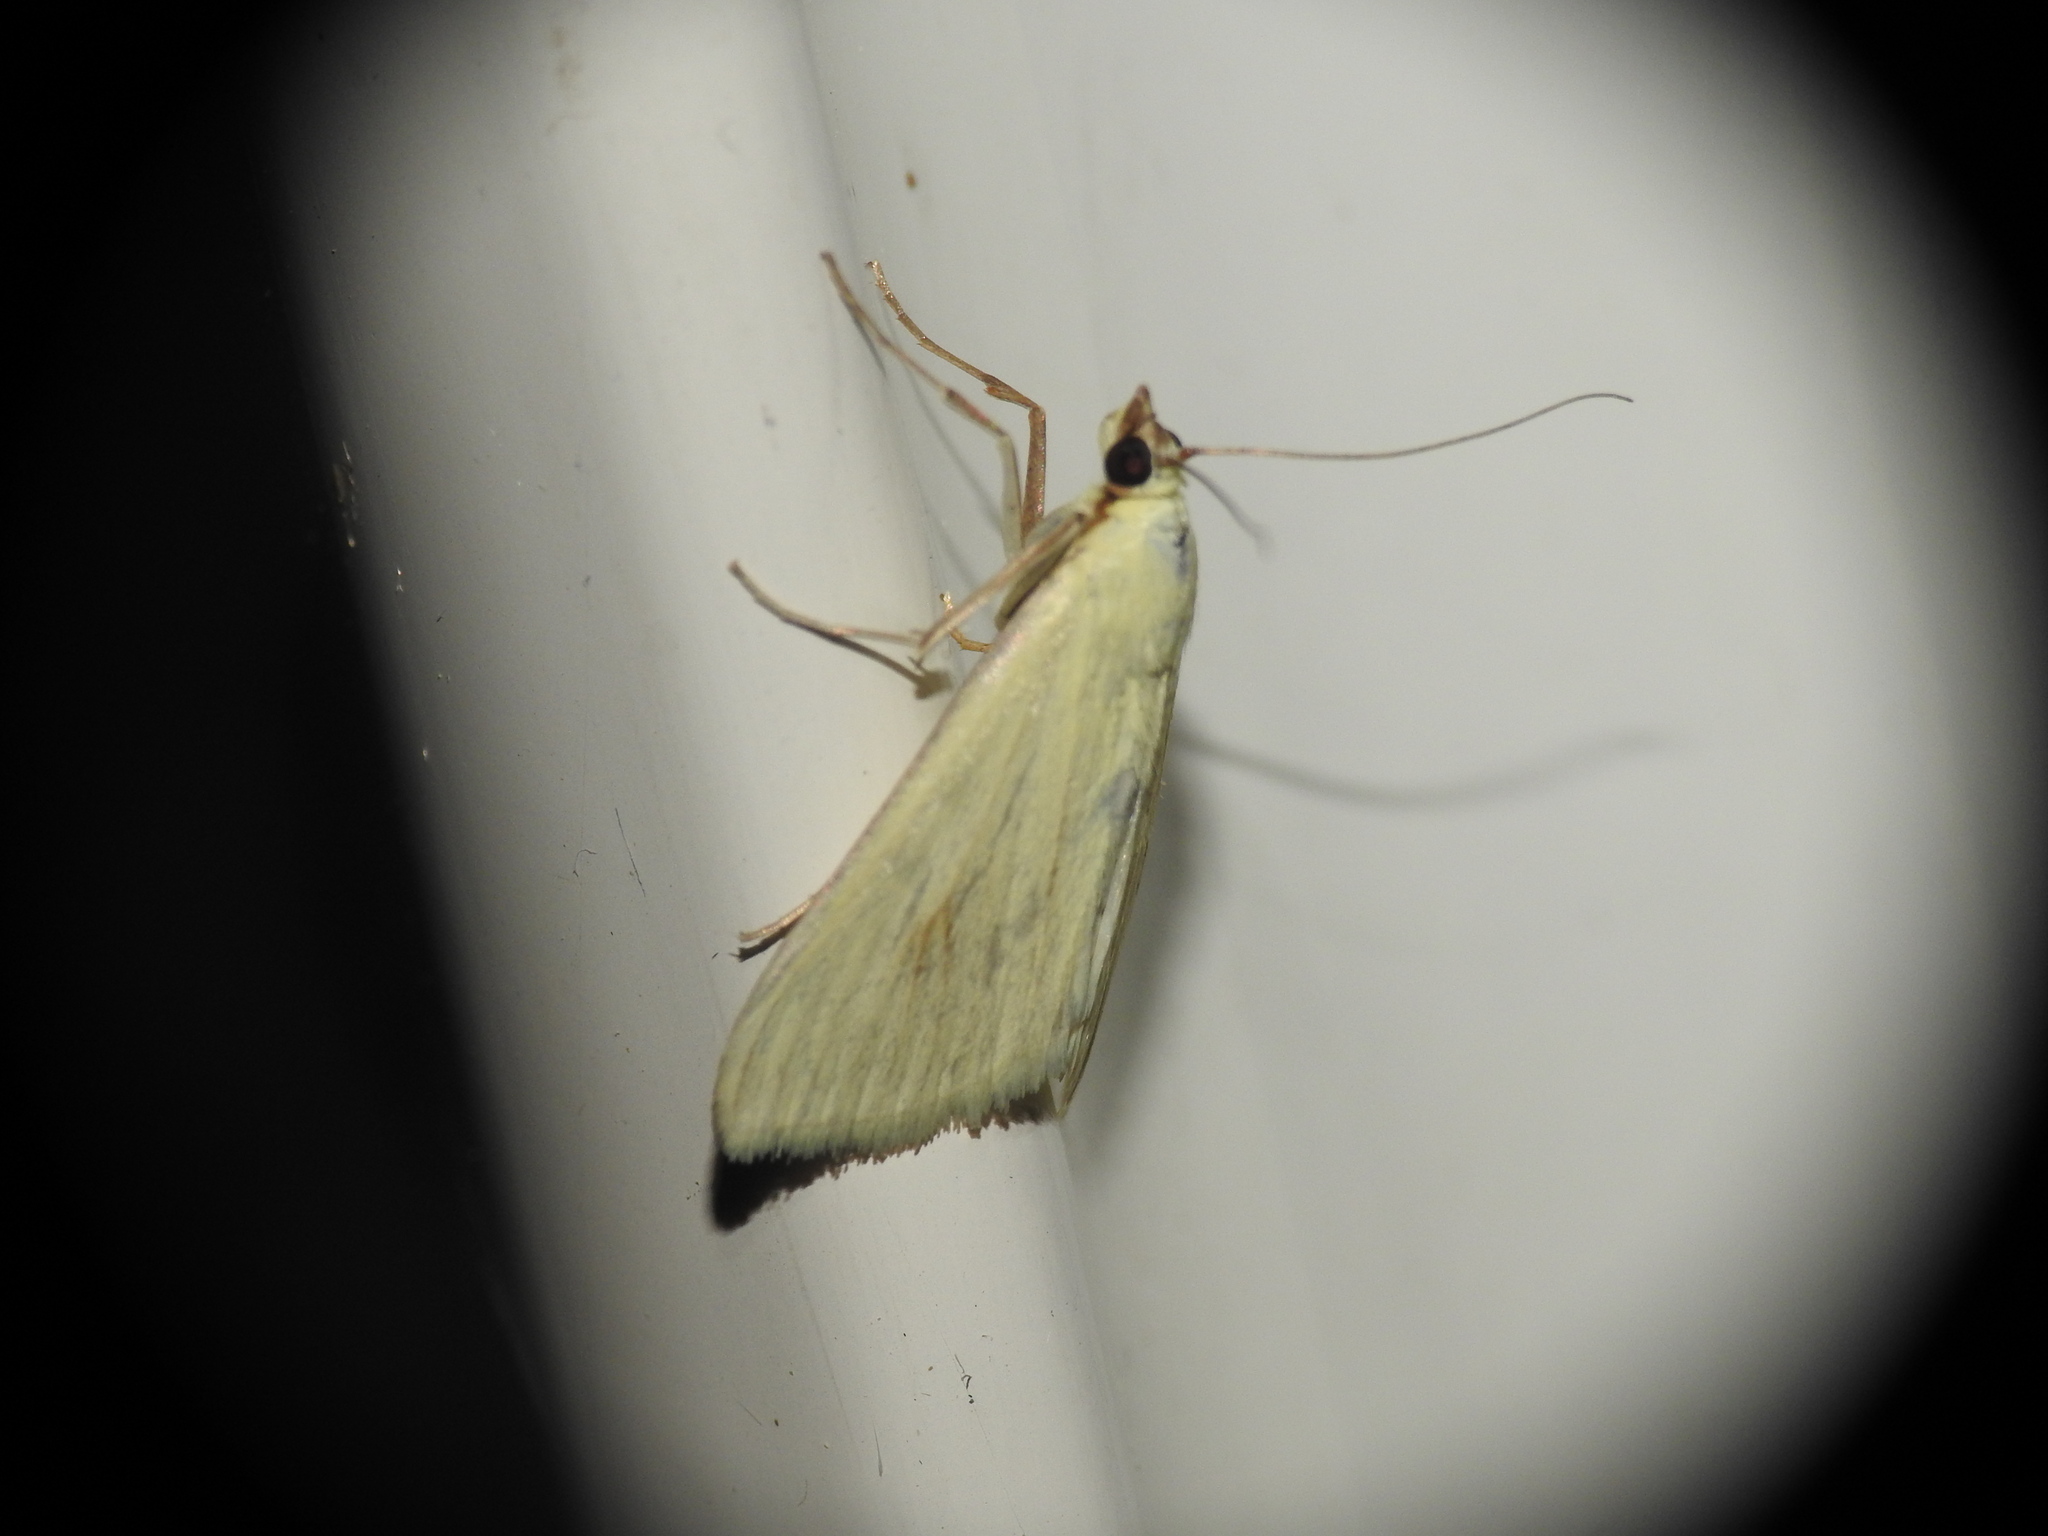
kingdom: Animalia
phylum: Arthropoda
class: Insecta
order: Lepidoptera
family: Crambidae
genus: Sitochroa
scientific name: Sitochroa palealis
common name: Greenish-yellow sitochroa moth
